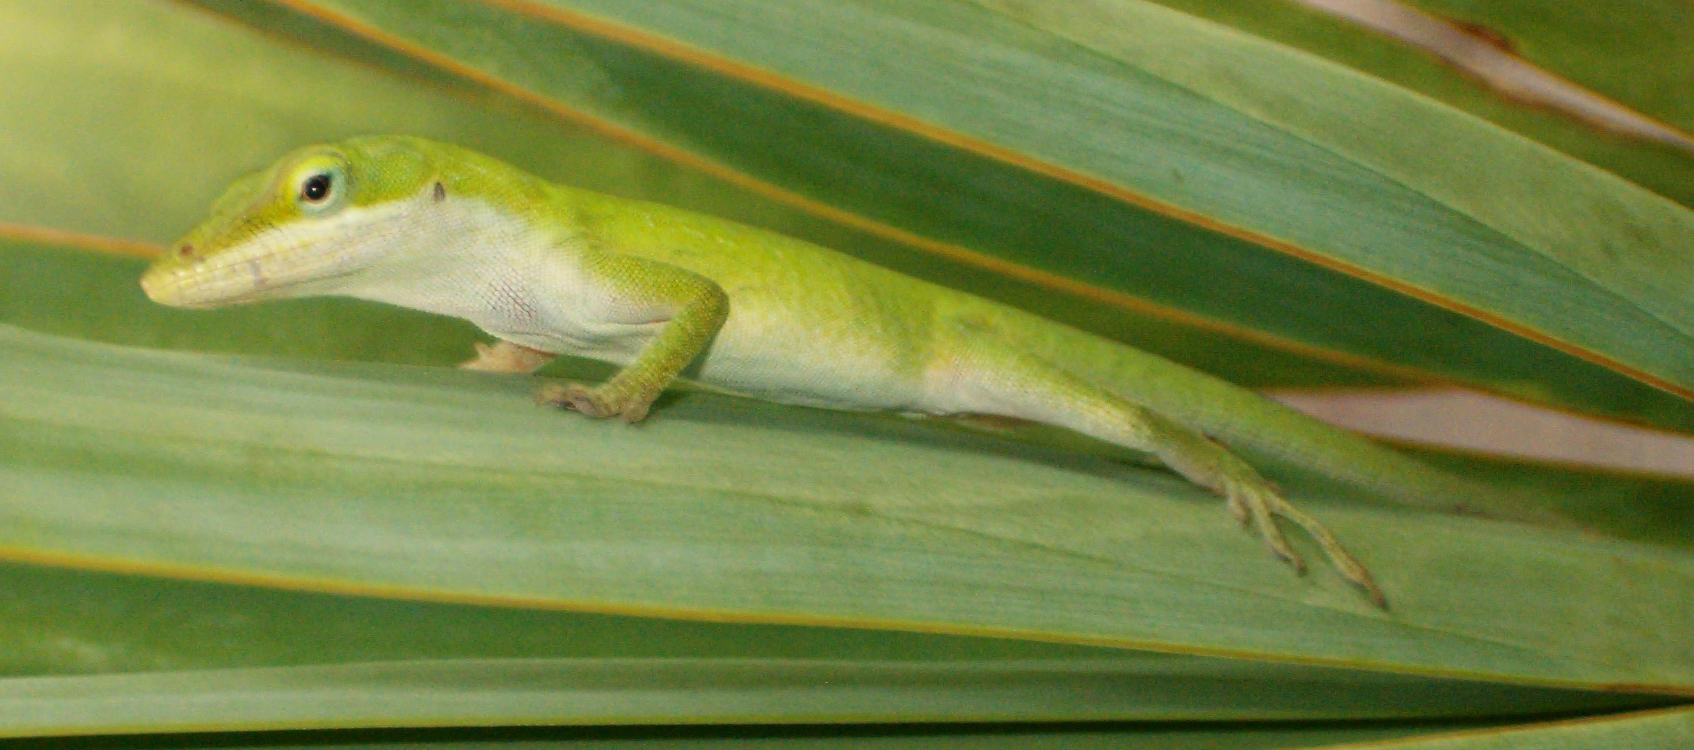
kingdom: Animalia
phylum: Chordata
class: Squamata
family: Dactyloidae
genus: Anolis
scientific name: Anolis carolinensis
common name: Green anole
